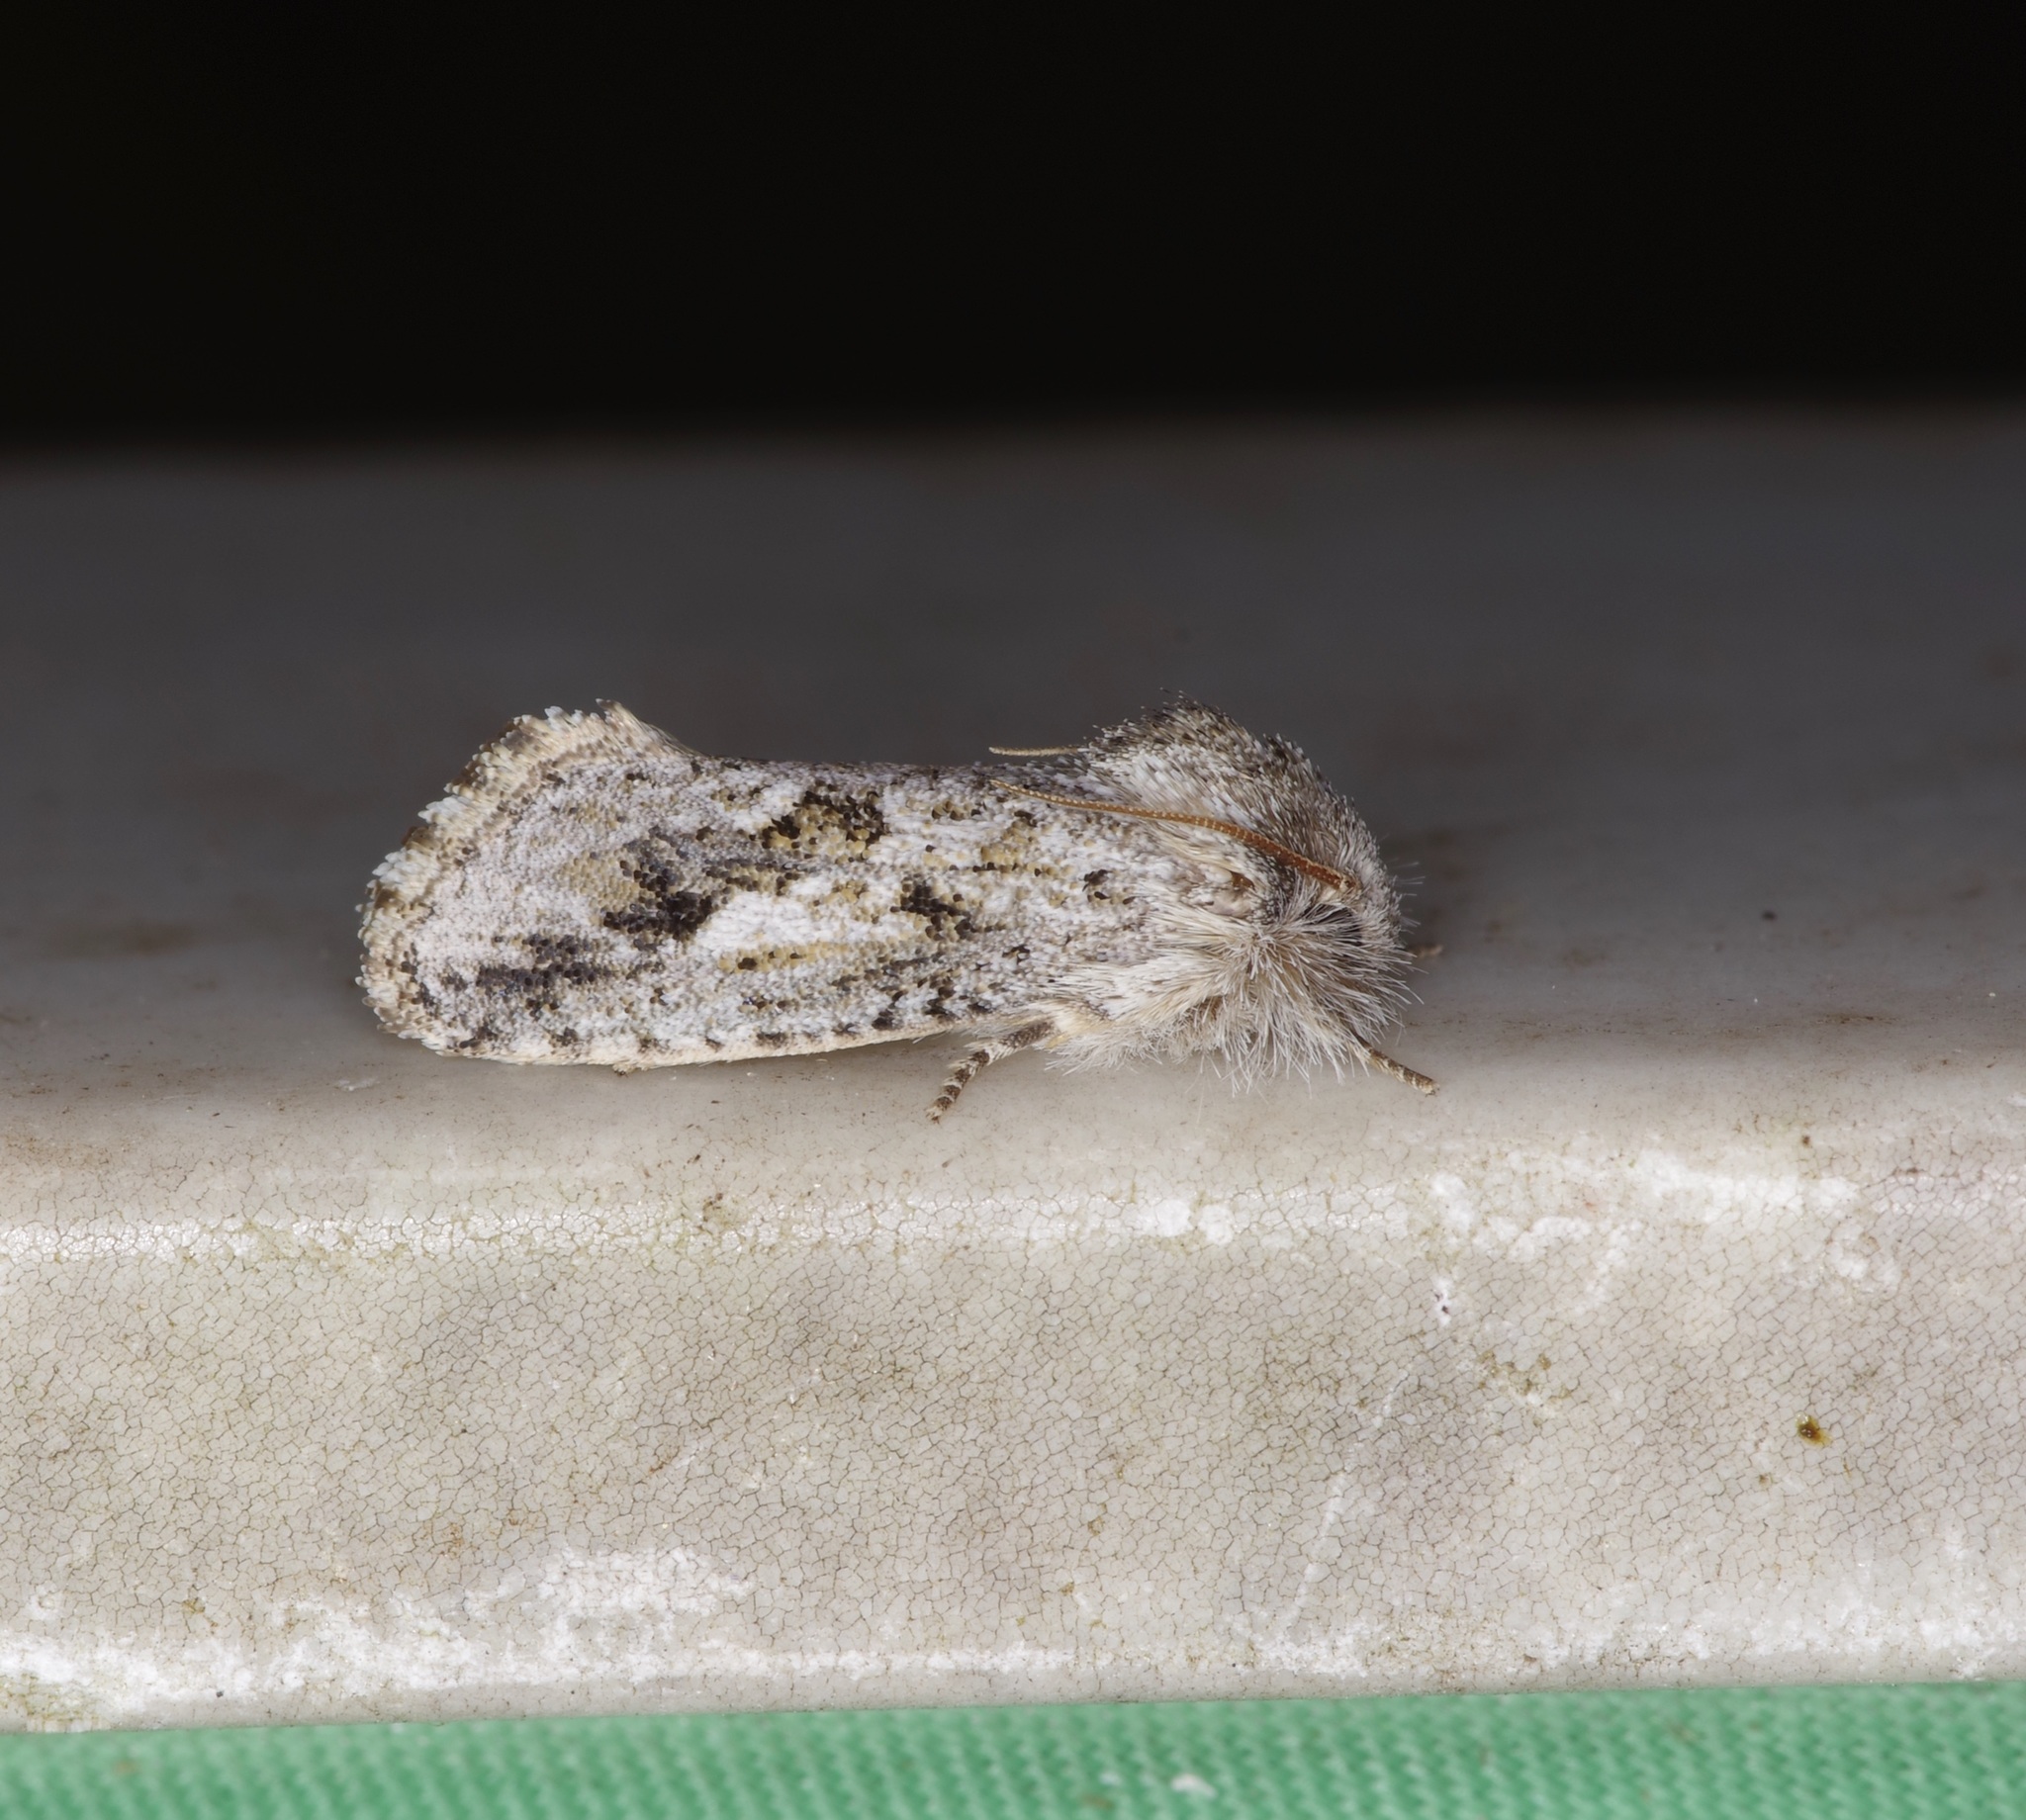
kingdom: Animalia
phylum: Arthropoda
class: Insecta
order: Lepidoptera
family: Tineidae
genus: Acrolophus
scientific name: Acrolophus griseus
